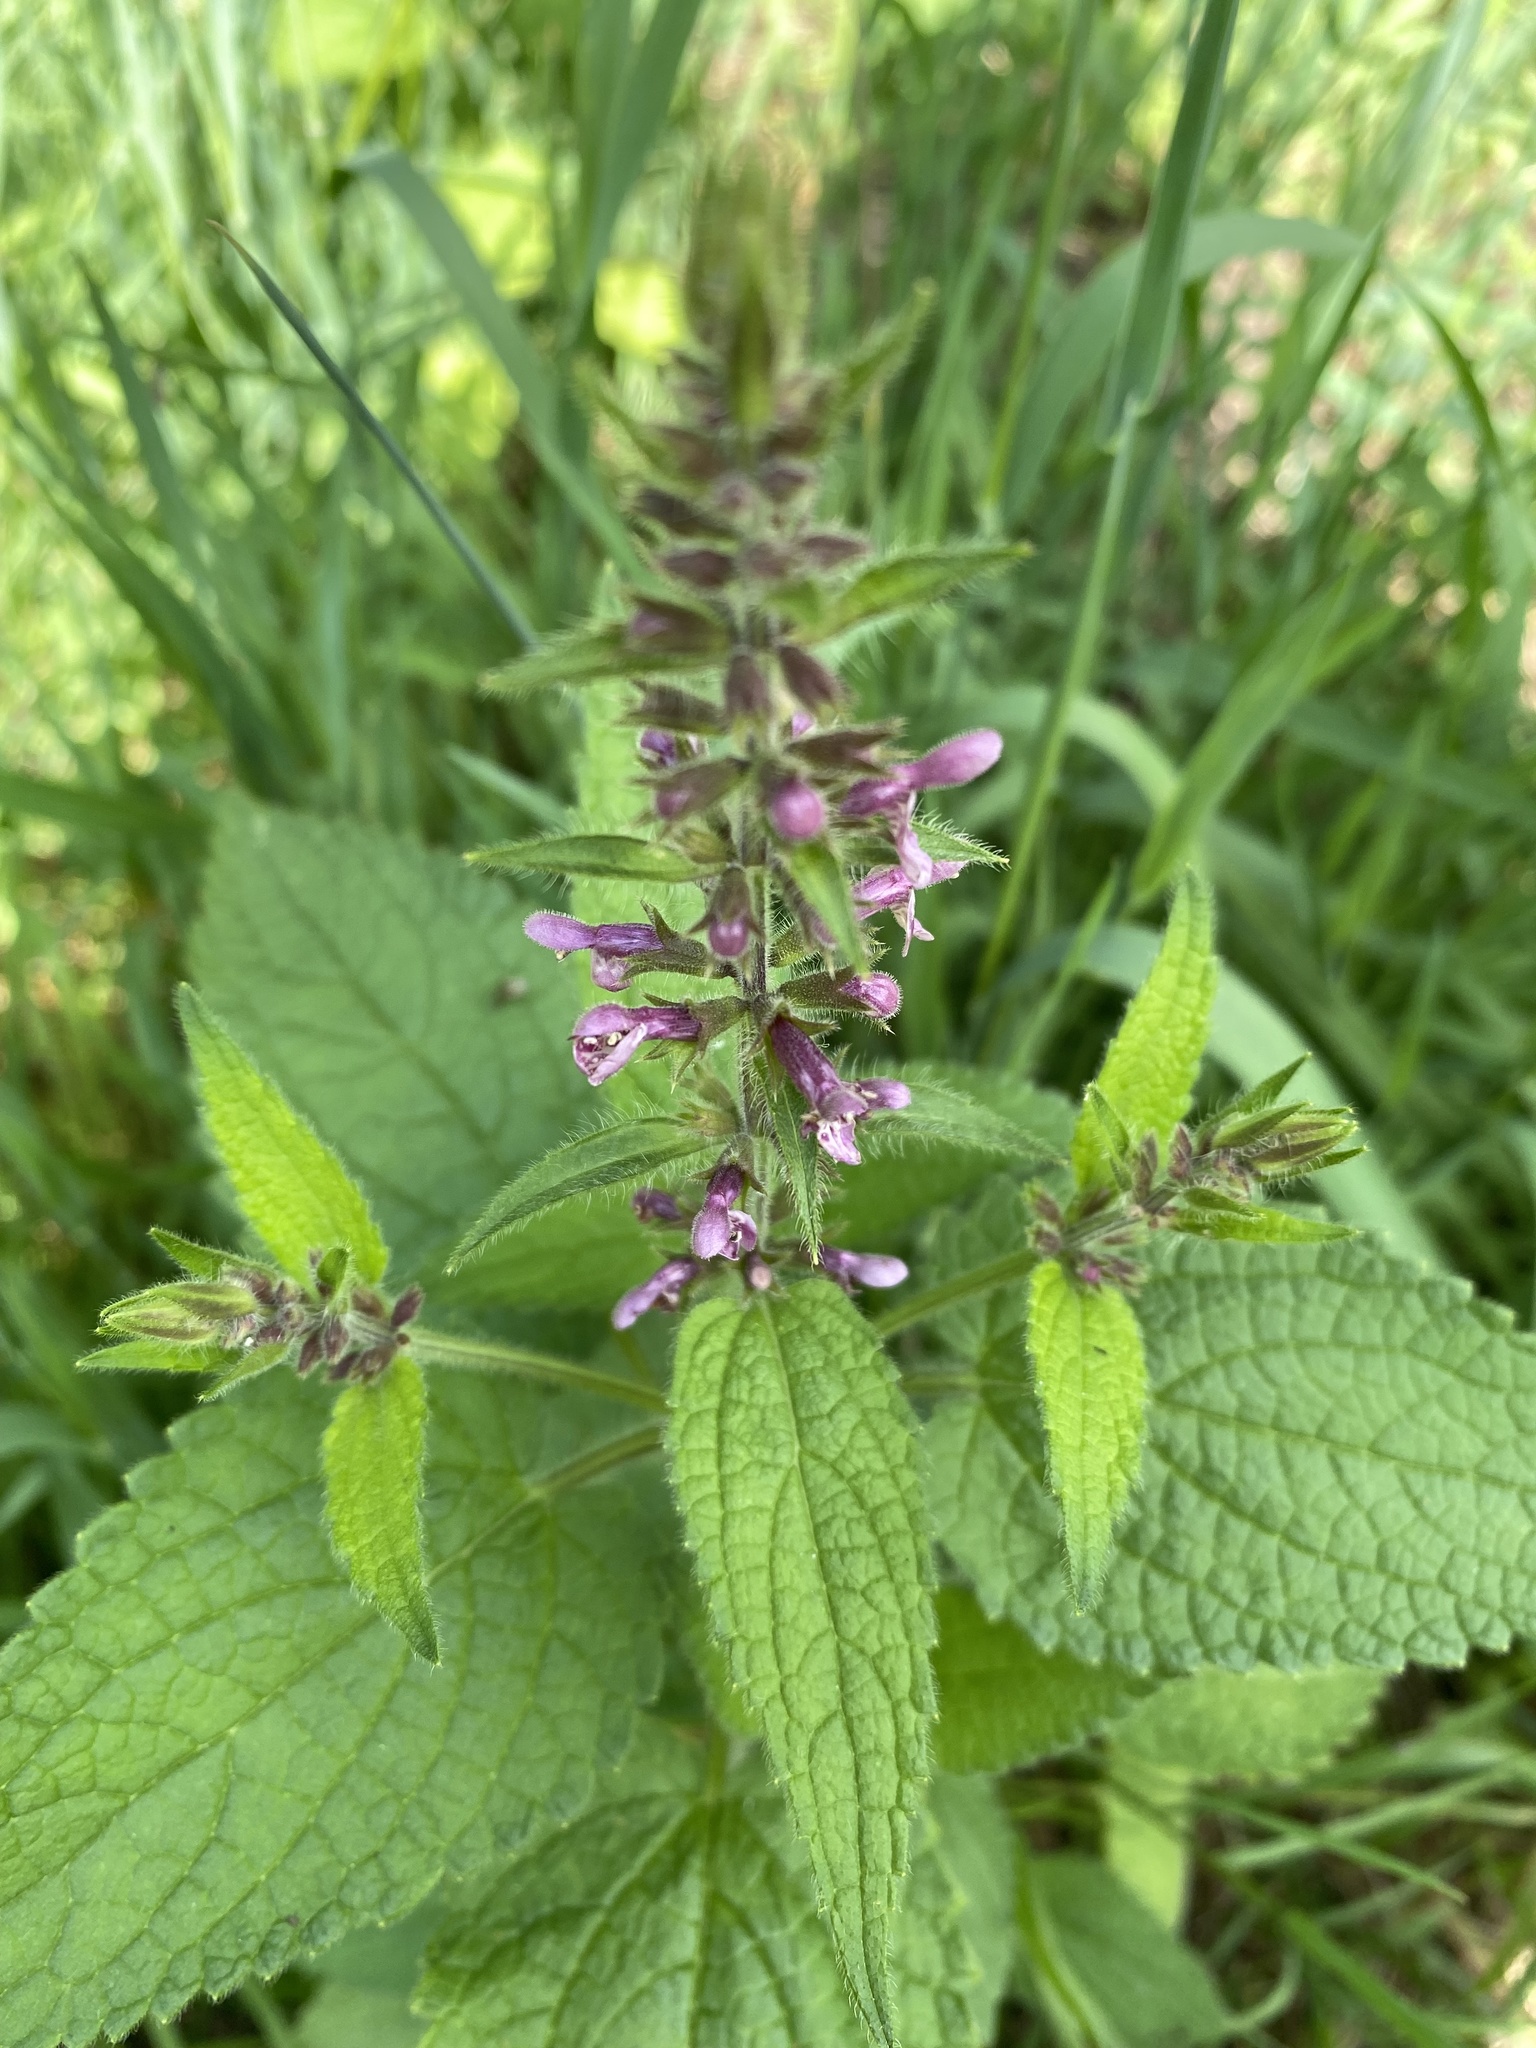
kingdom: Plantae
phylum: Tracheophyta
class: Magnoliopsida
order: Lamiales
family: Lamiaceae
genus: Stachys
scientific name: Stachys sylvatica
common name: Hedge woundwort
